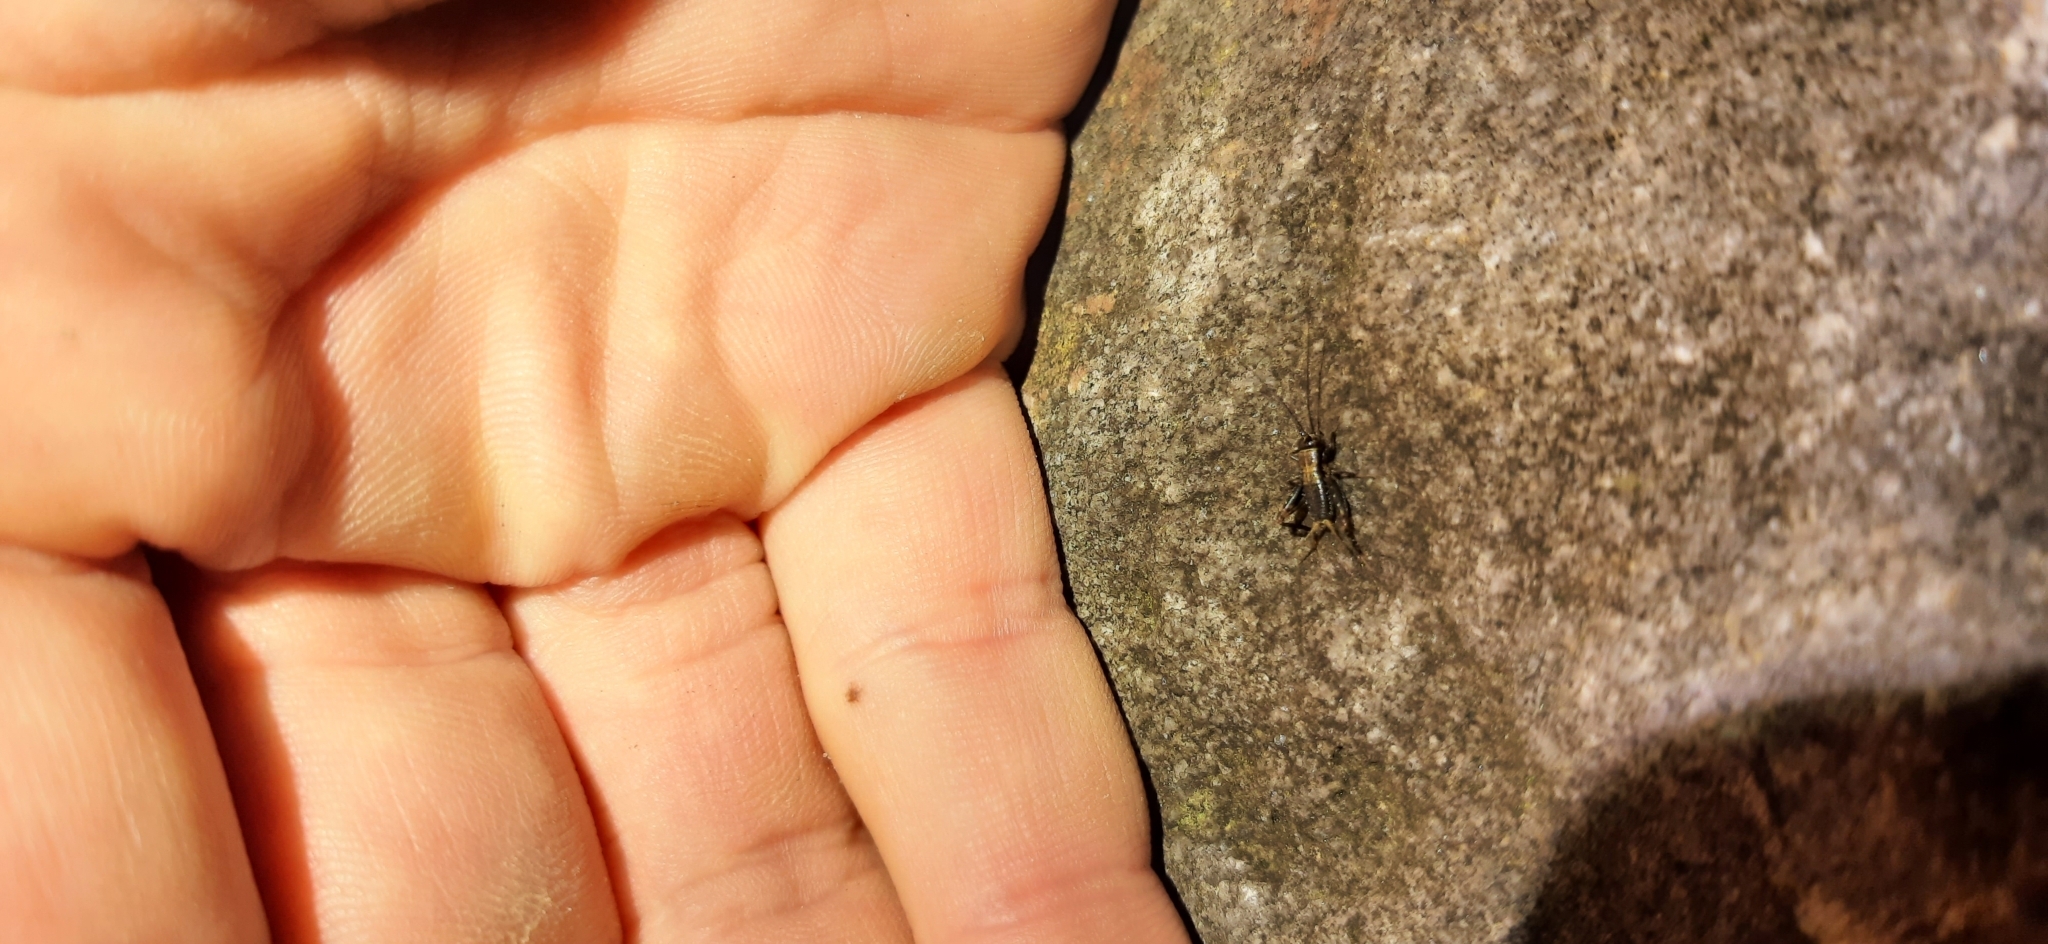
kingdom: Animalia
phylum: Arthropoda
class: Insecta
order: Orthoptera
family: Trigonidiidae
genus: Nemobius
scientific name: Nemobius sylvestris
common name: Wood-cricket
